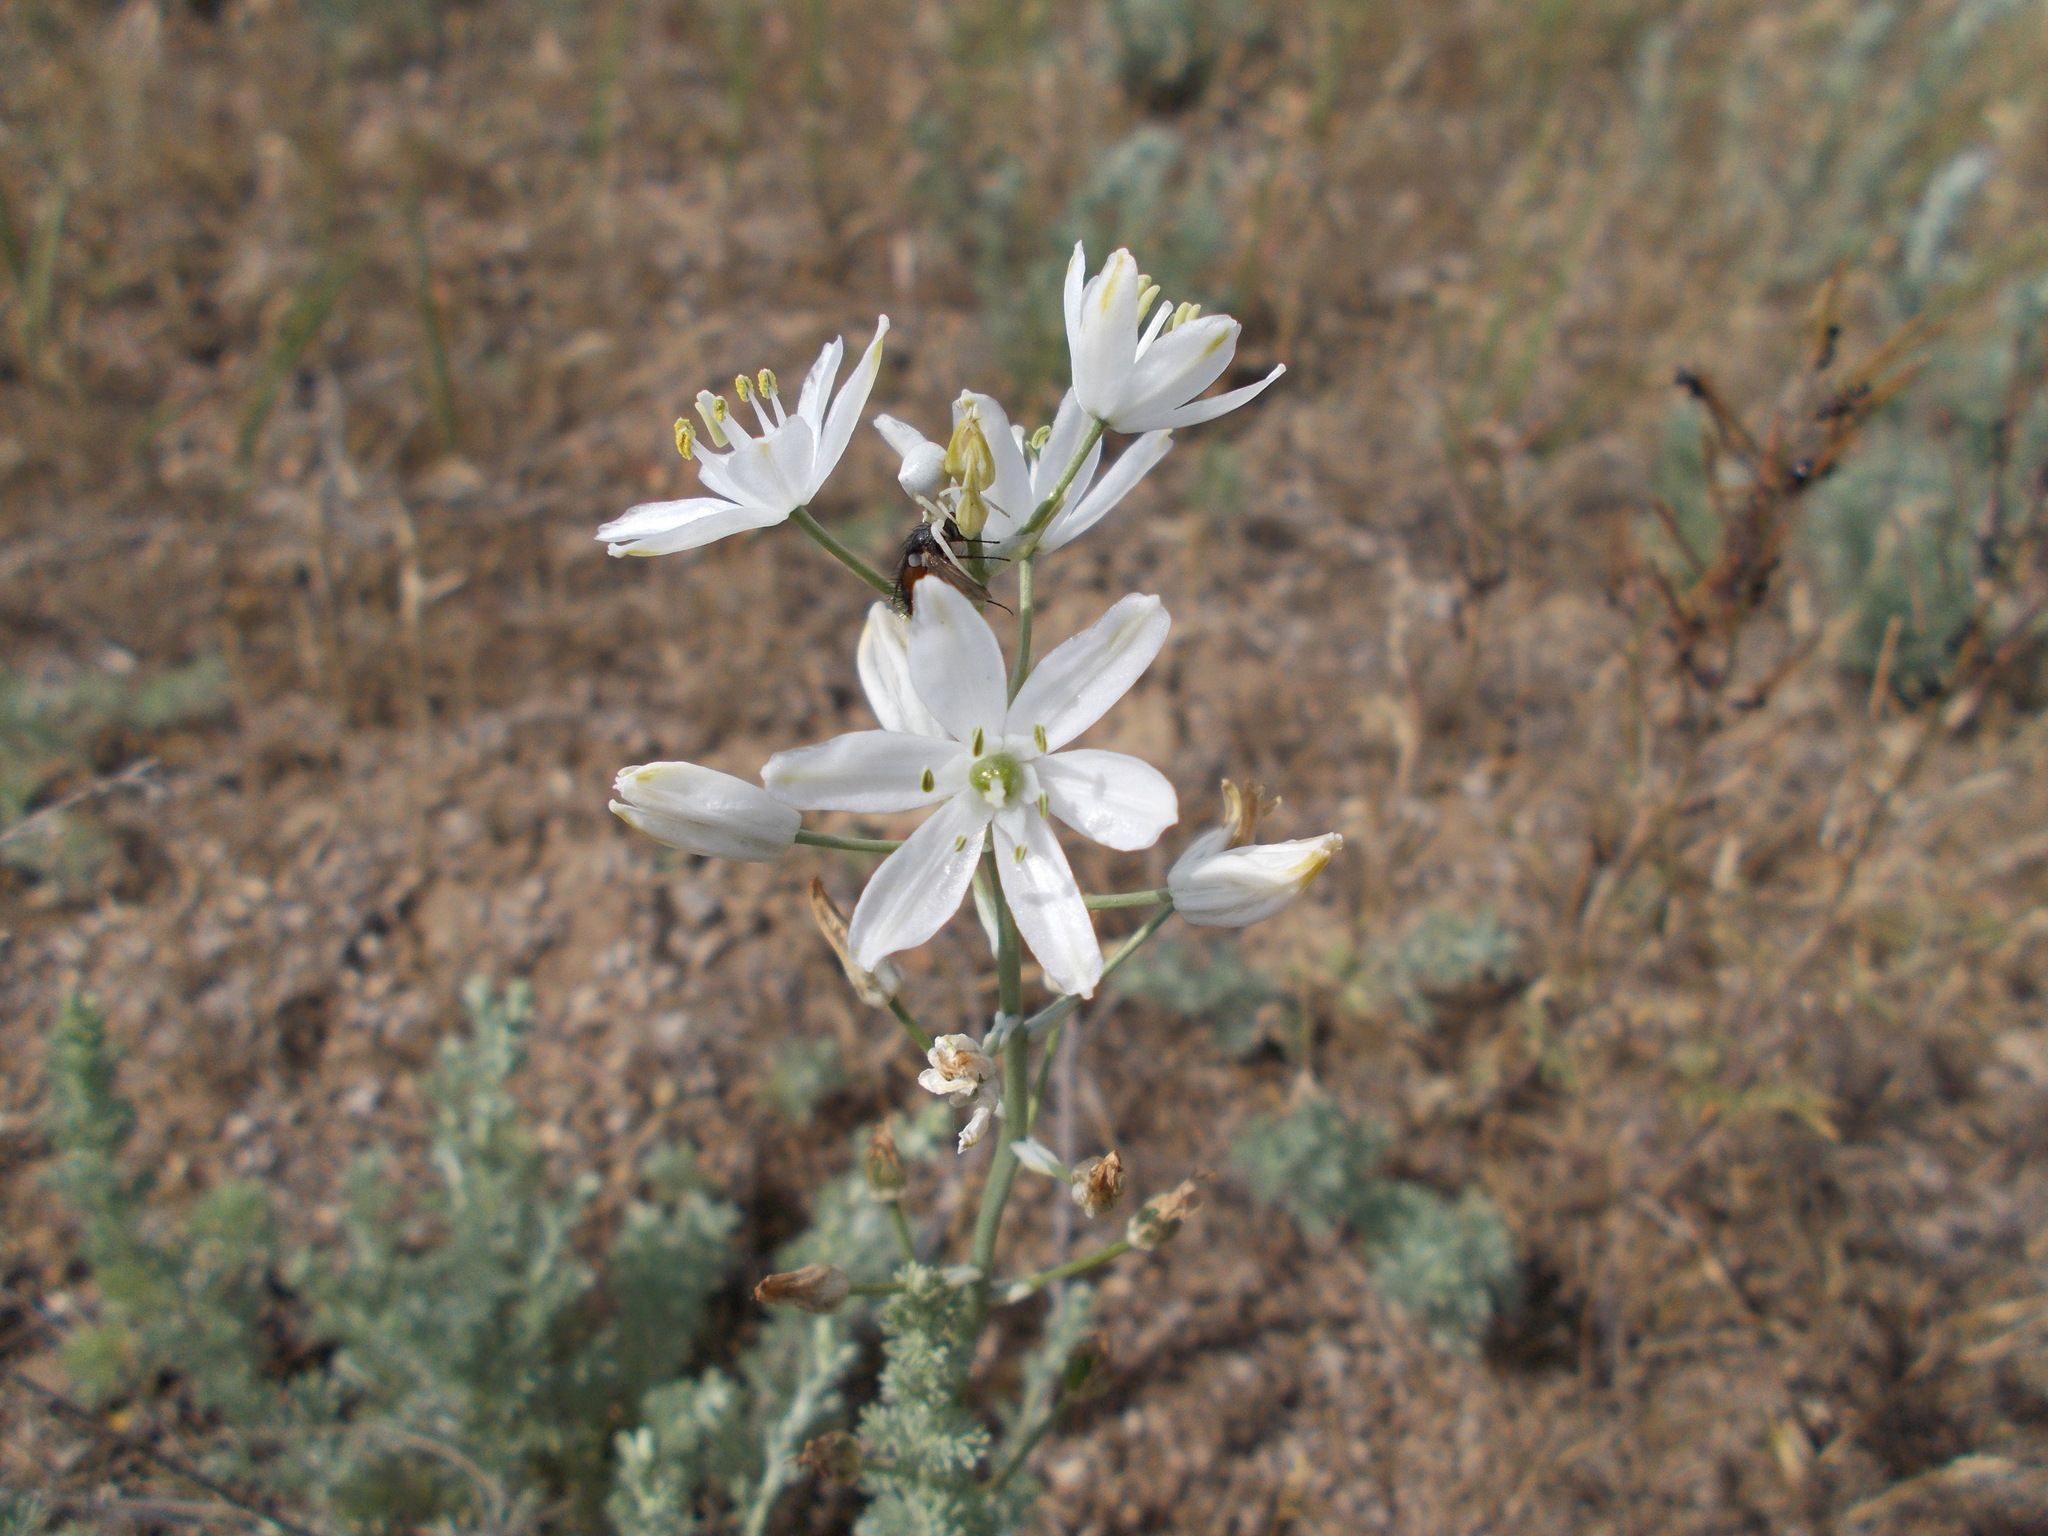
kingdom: Plantae
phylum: Tracheophyta
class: Liliopsida
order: Asparagales
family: Asparagaceae
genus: Ornithogalum
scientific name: Ornithogalum fischerianum
